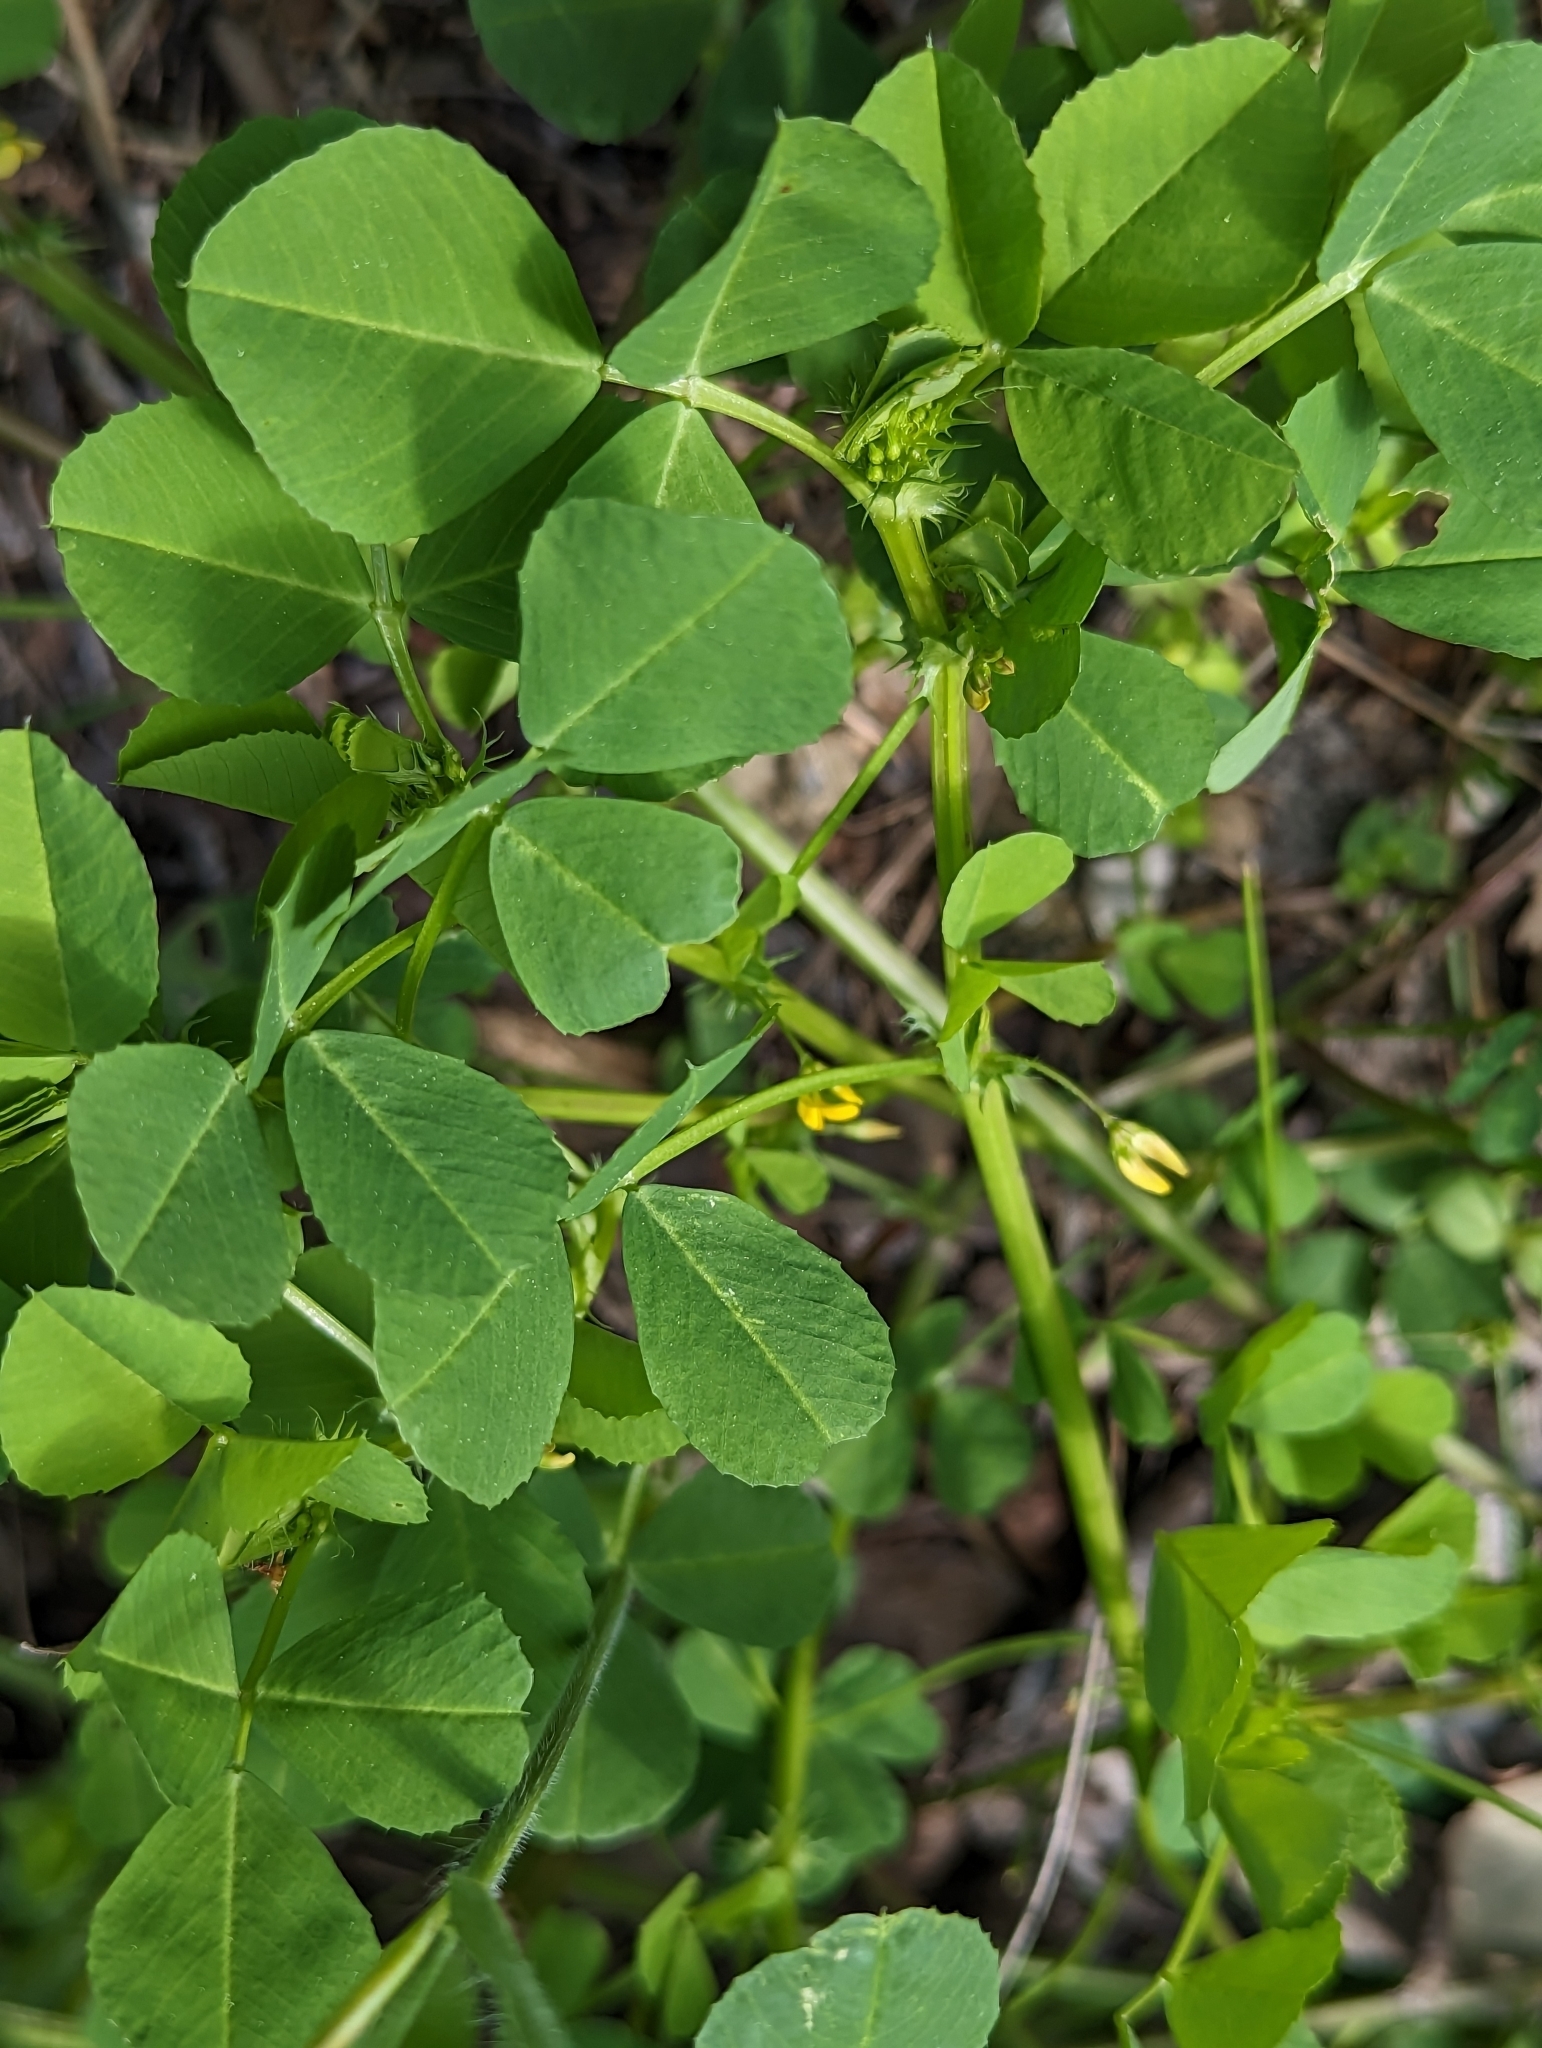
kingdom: Plantae
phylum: Tracheophyta
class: Magnoliopsida
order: Fabales
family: Fabaceae
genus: Medicago
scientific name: Medicago polymorpha
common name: Burclover
